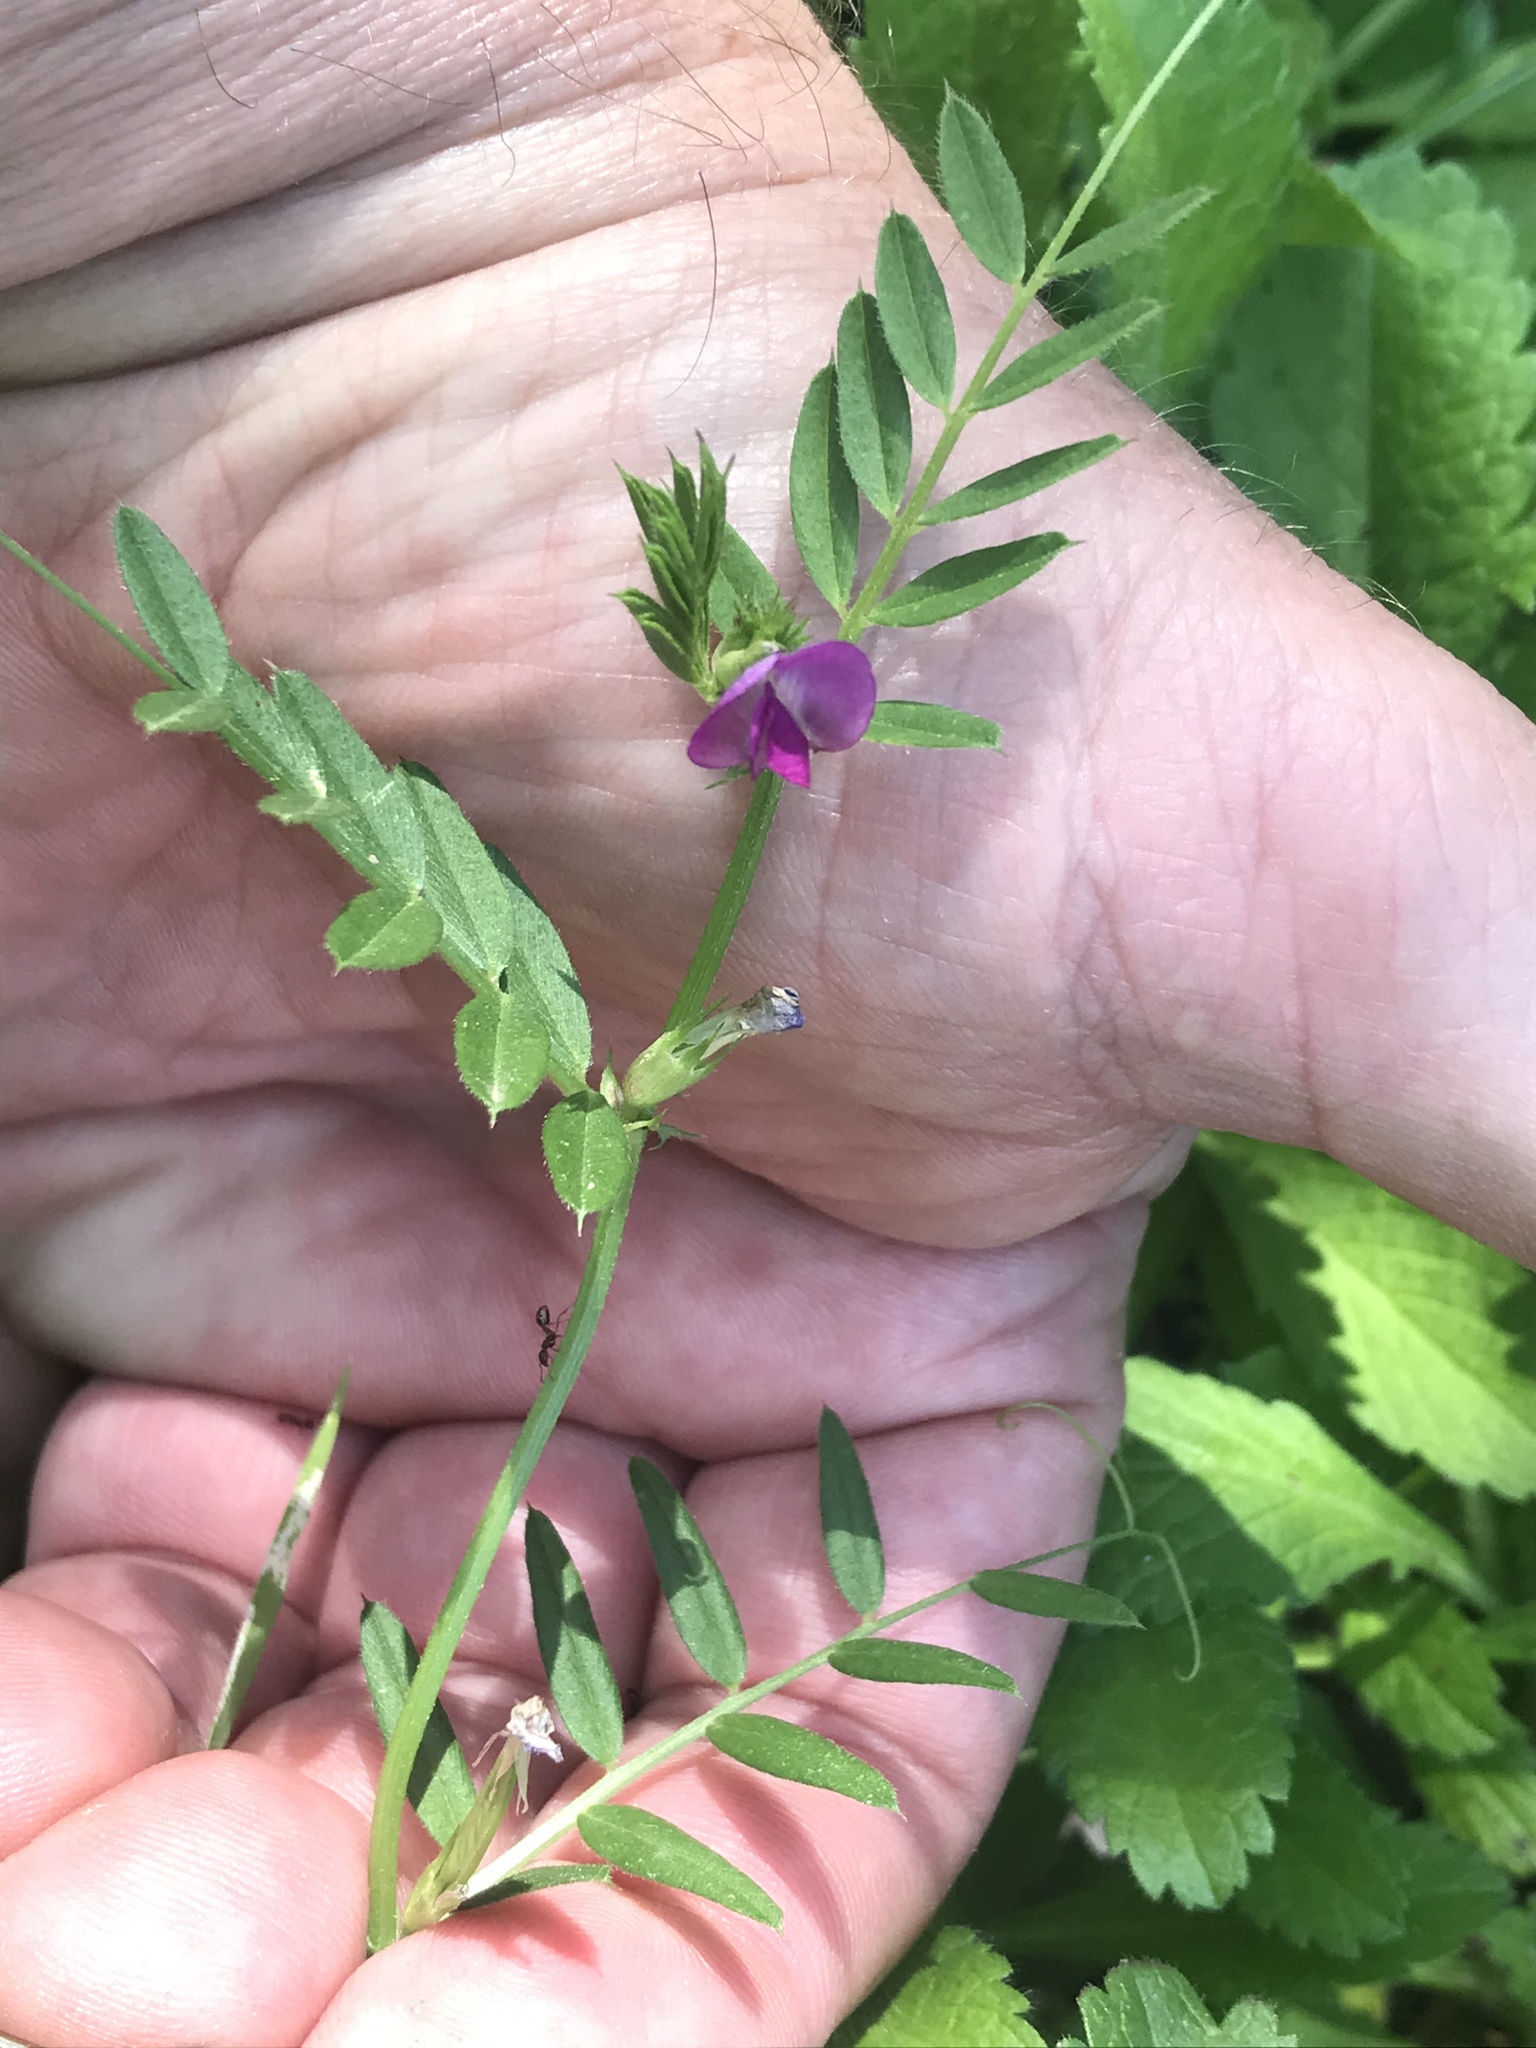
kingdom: Plantae
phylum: Tracheophyta
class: Magnoliopsida
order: Fabales
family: Fabaceae
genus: Vicia
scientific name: Vicia sativa
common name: Garden vetch
